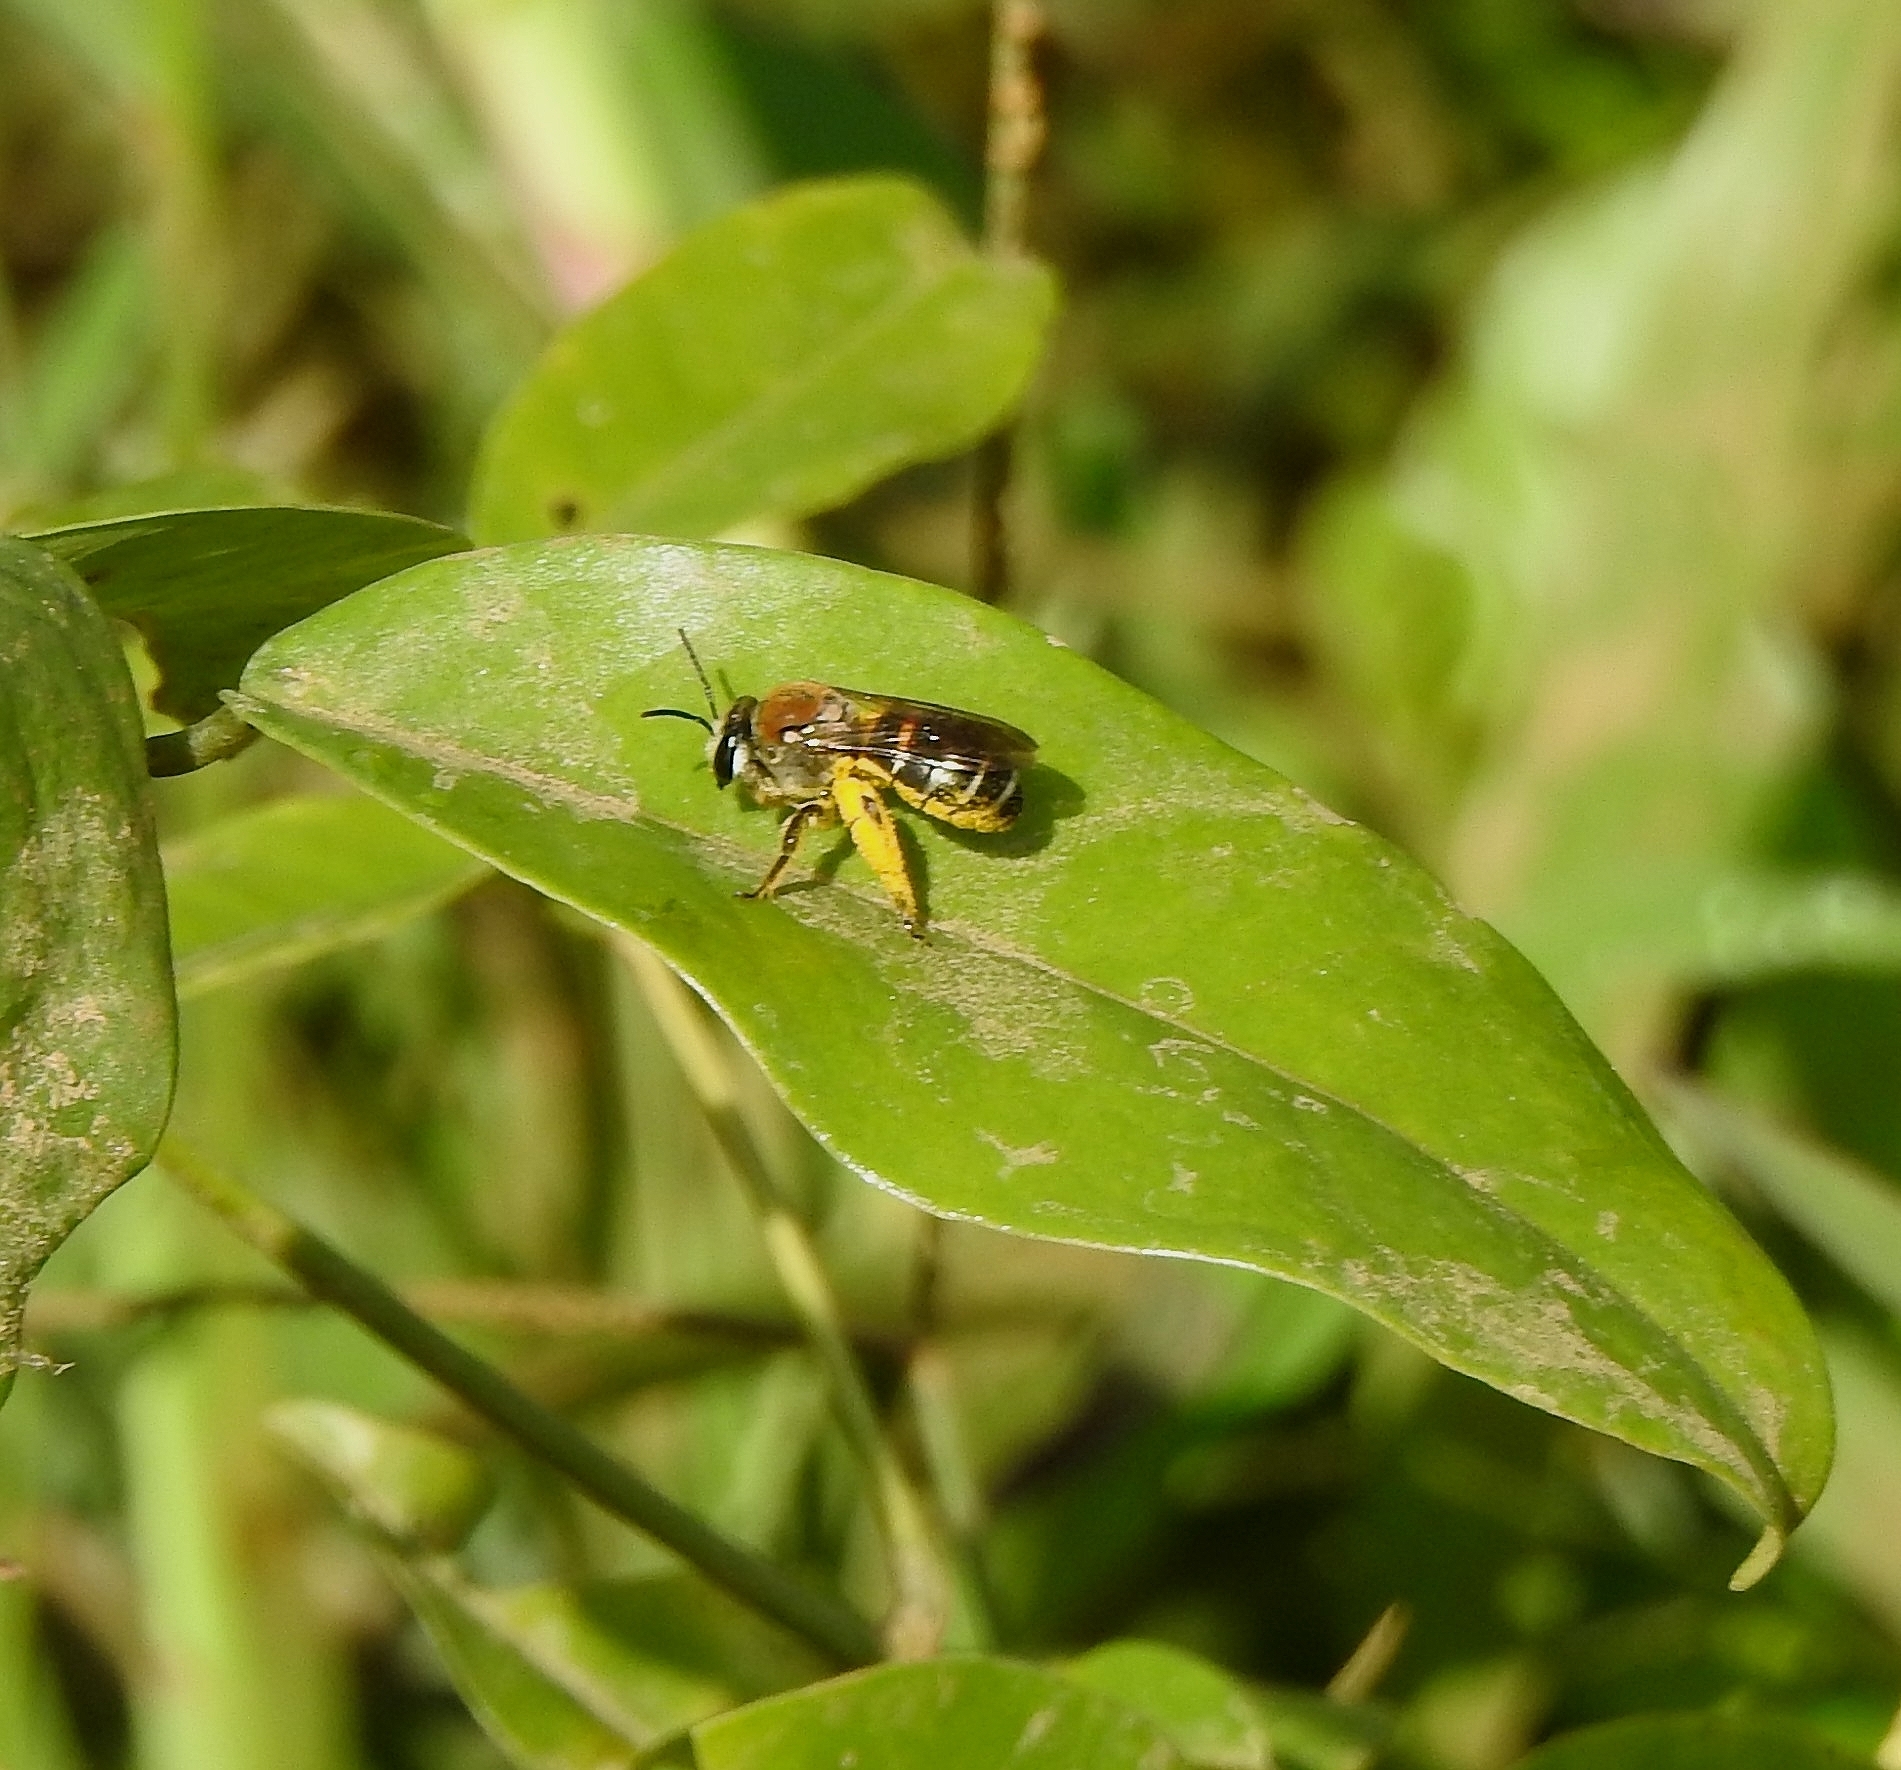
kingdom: Animalia
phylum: Arthropoda
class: Insecta
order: Hymenoptera
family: Halictidae
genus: Nomia
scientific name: Nomia thoracica
